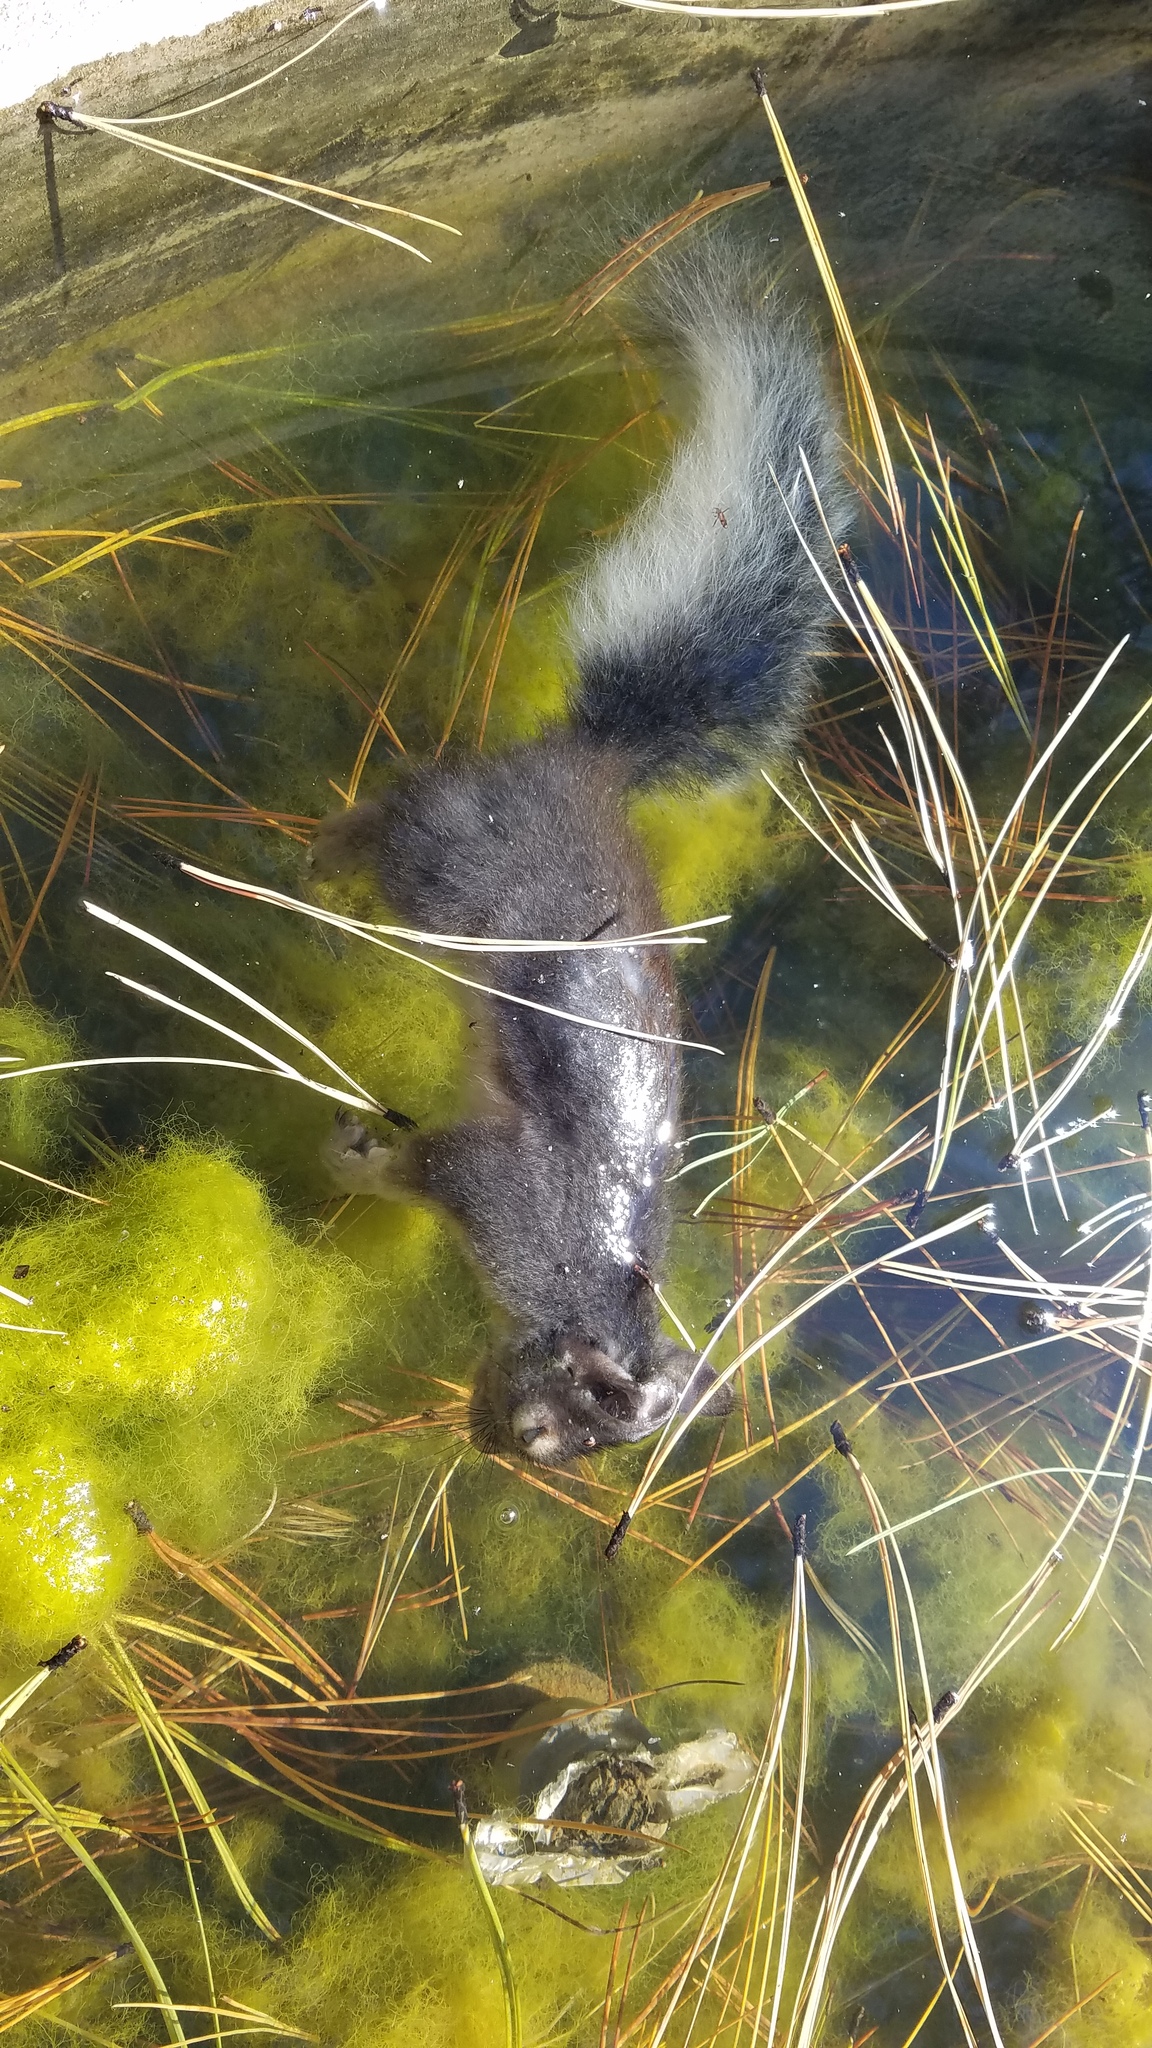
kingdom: Animalia
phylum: Chordata
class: Mammalia
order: Rodentia
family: Sciuridae
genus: Sciurus
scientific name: Sciurus aberti
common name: Abert's squirrel
